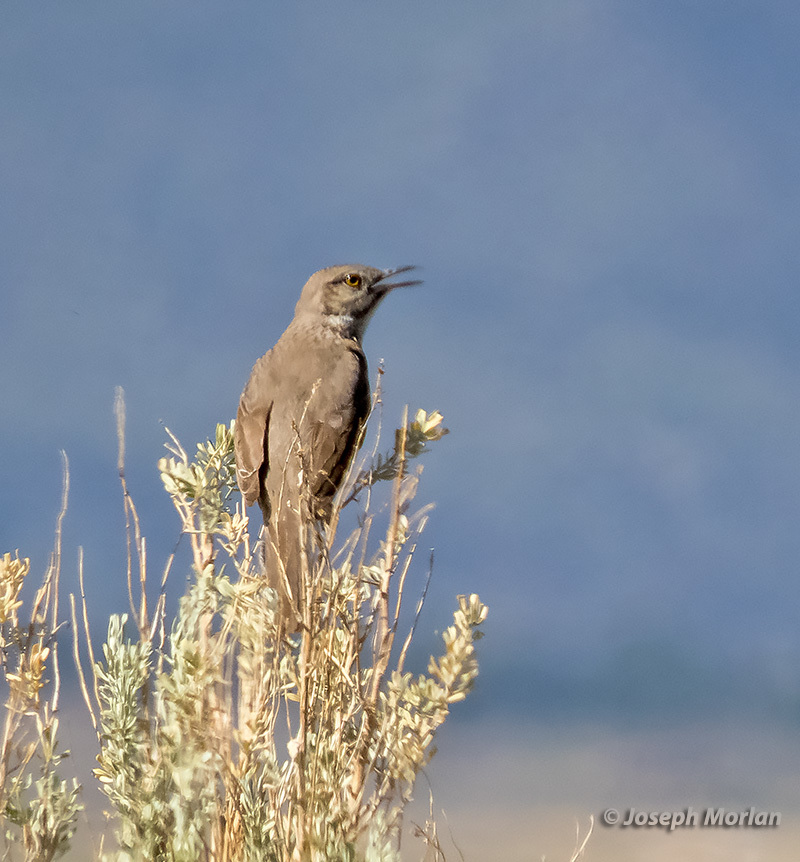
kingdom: Animalia
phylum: Chordata
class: Aves
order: Passeriformes
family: Mimidae
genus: Oreoscoptes
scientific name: Oreoscoptes montanus
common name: Sage thrasher
